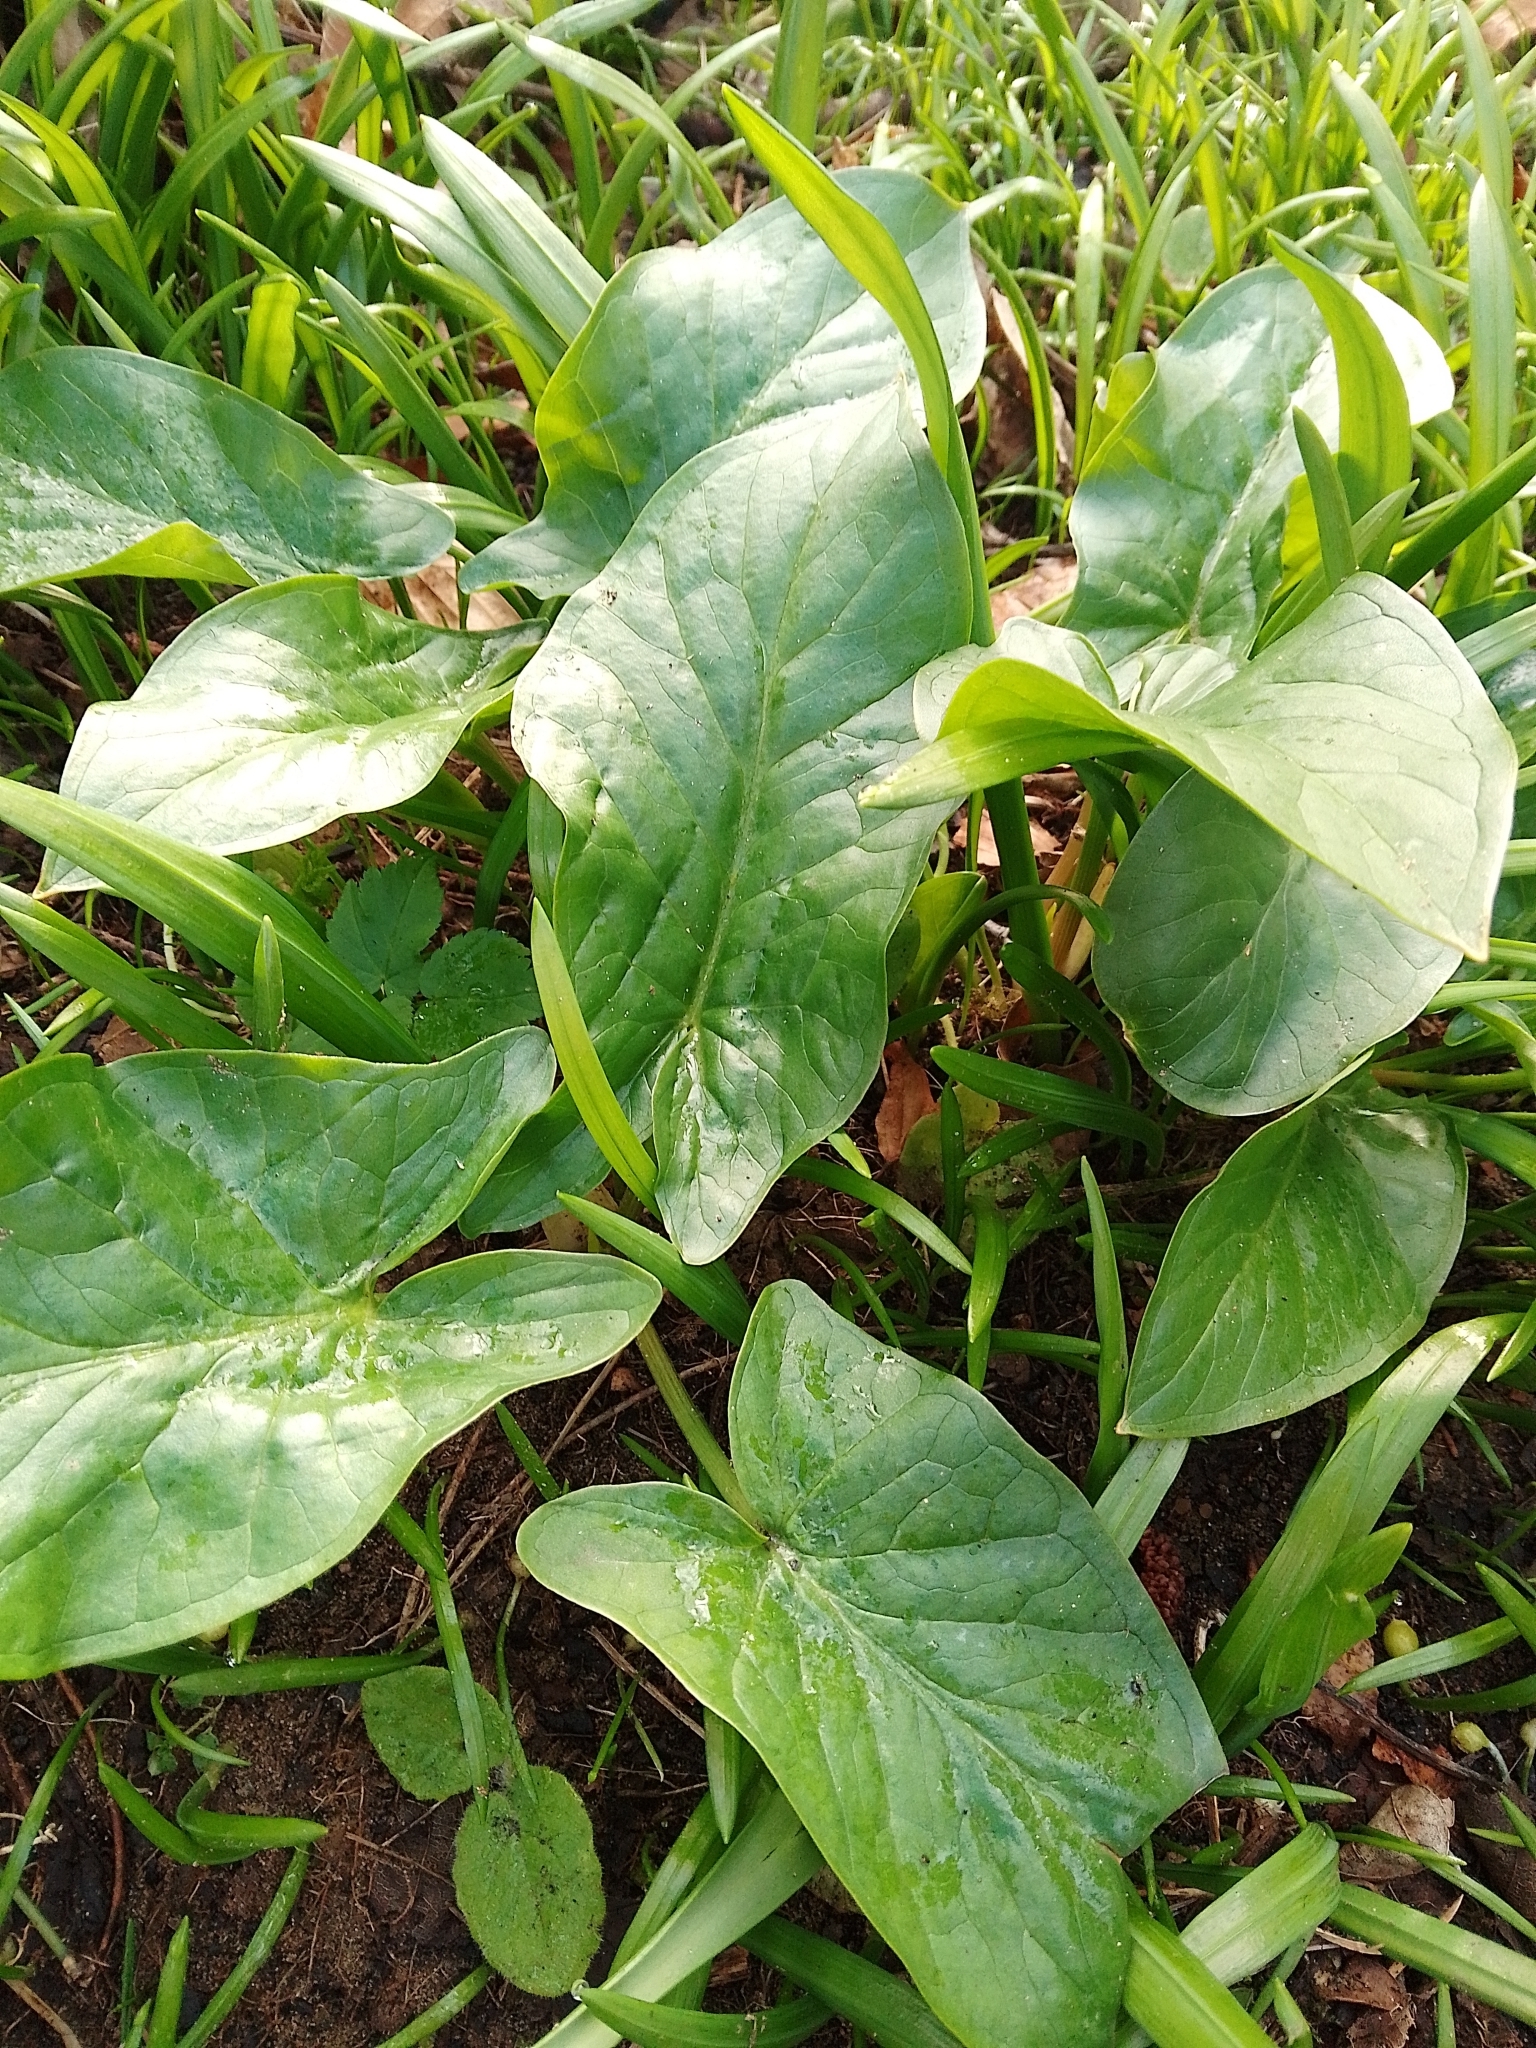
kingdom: Plantae
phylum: Tracheophyta
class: Liliopsida
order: Alismatales
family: Araceae
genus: Arum
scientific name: Arum maculatum
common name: Lords-and-ladies
